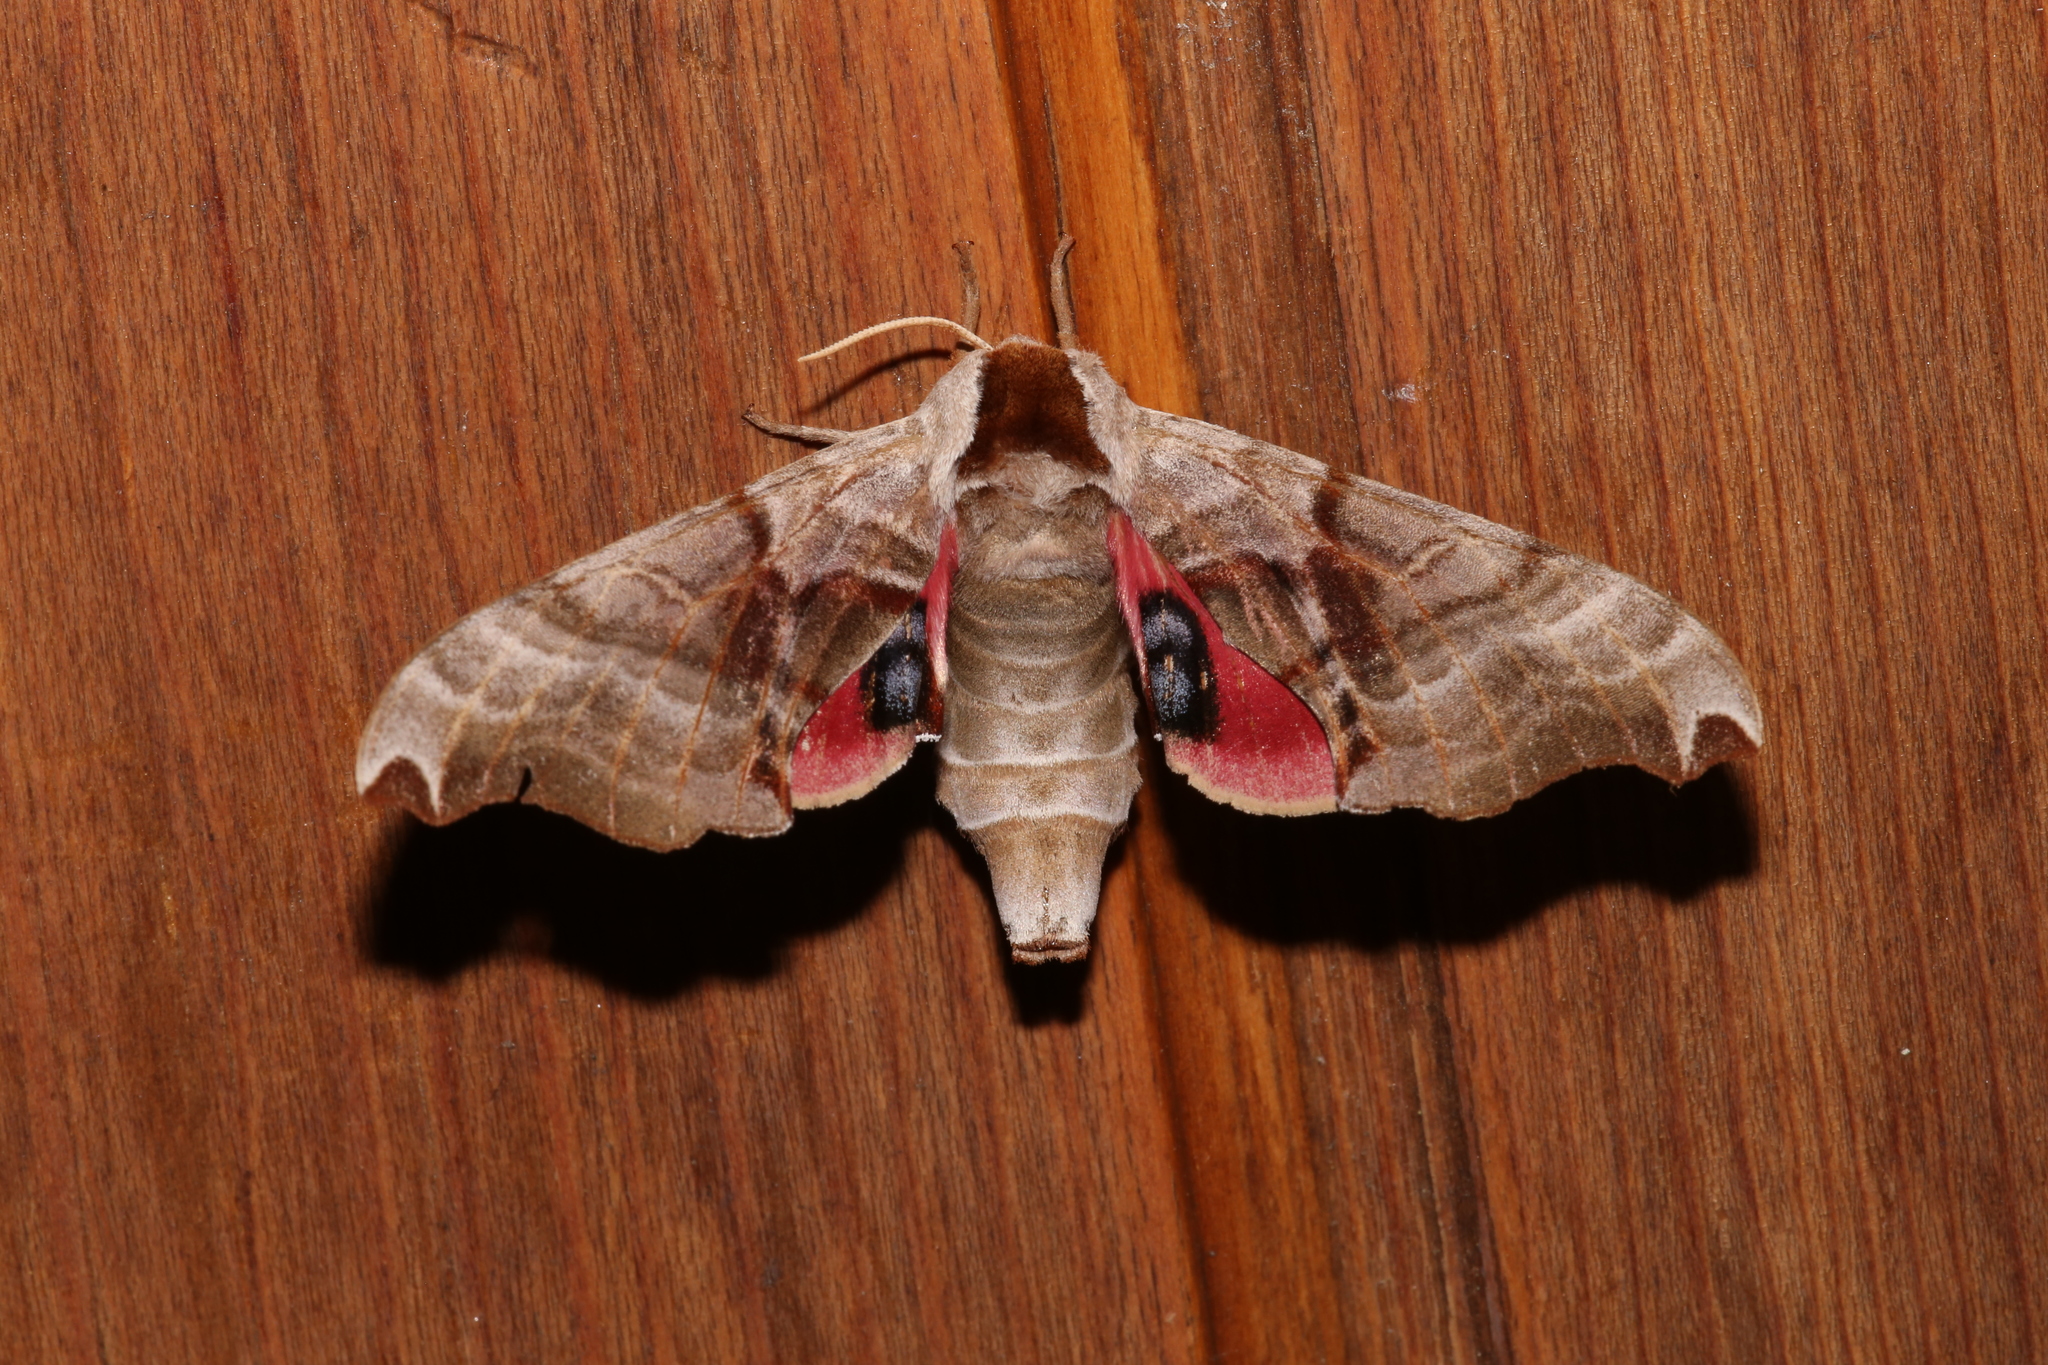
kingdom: Animalia
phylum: Arthropoda
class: Insecta
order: Lepidoptera
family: Sphingidae
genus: Smerinthus
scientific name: Smerinthus jamaicensis
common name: Twin spotted sphinx
